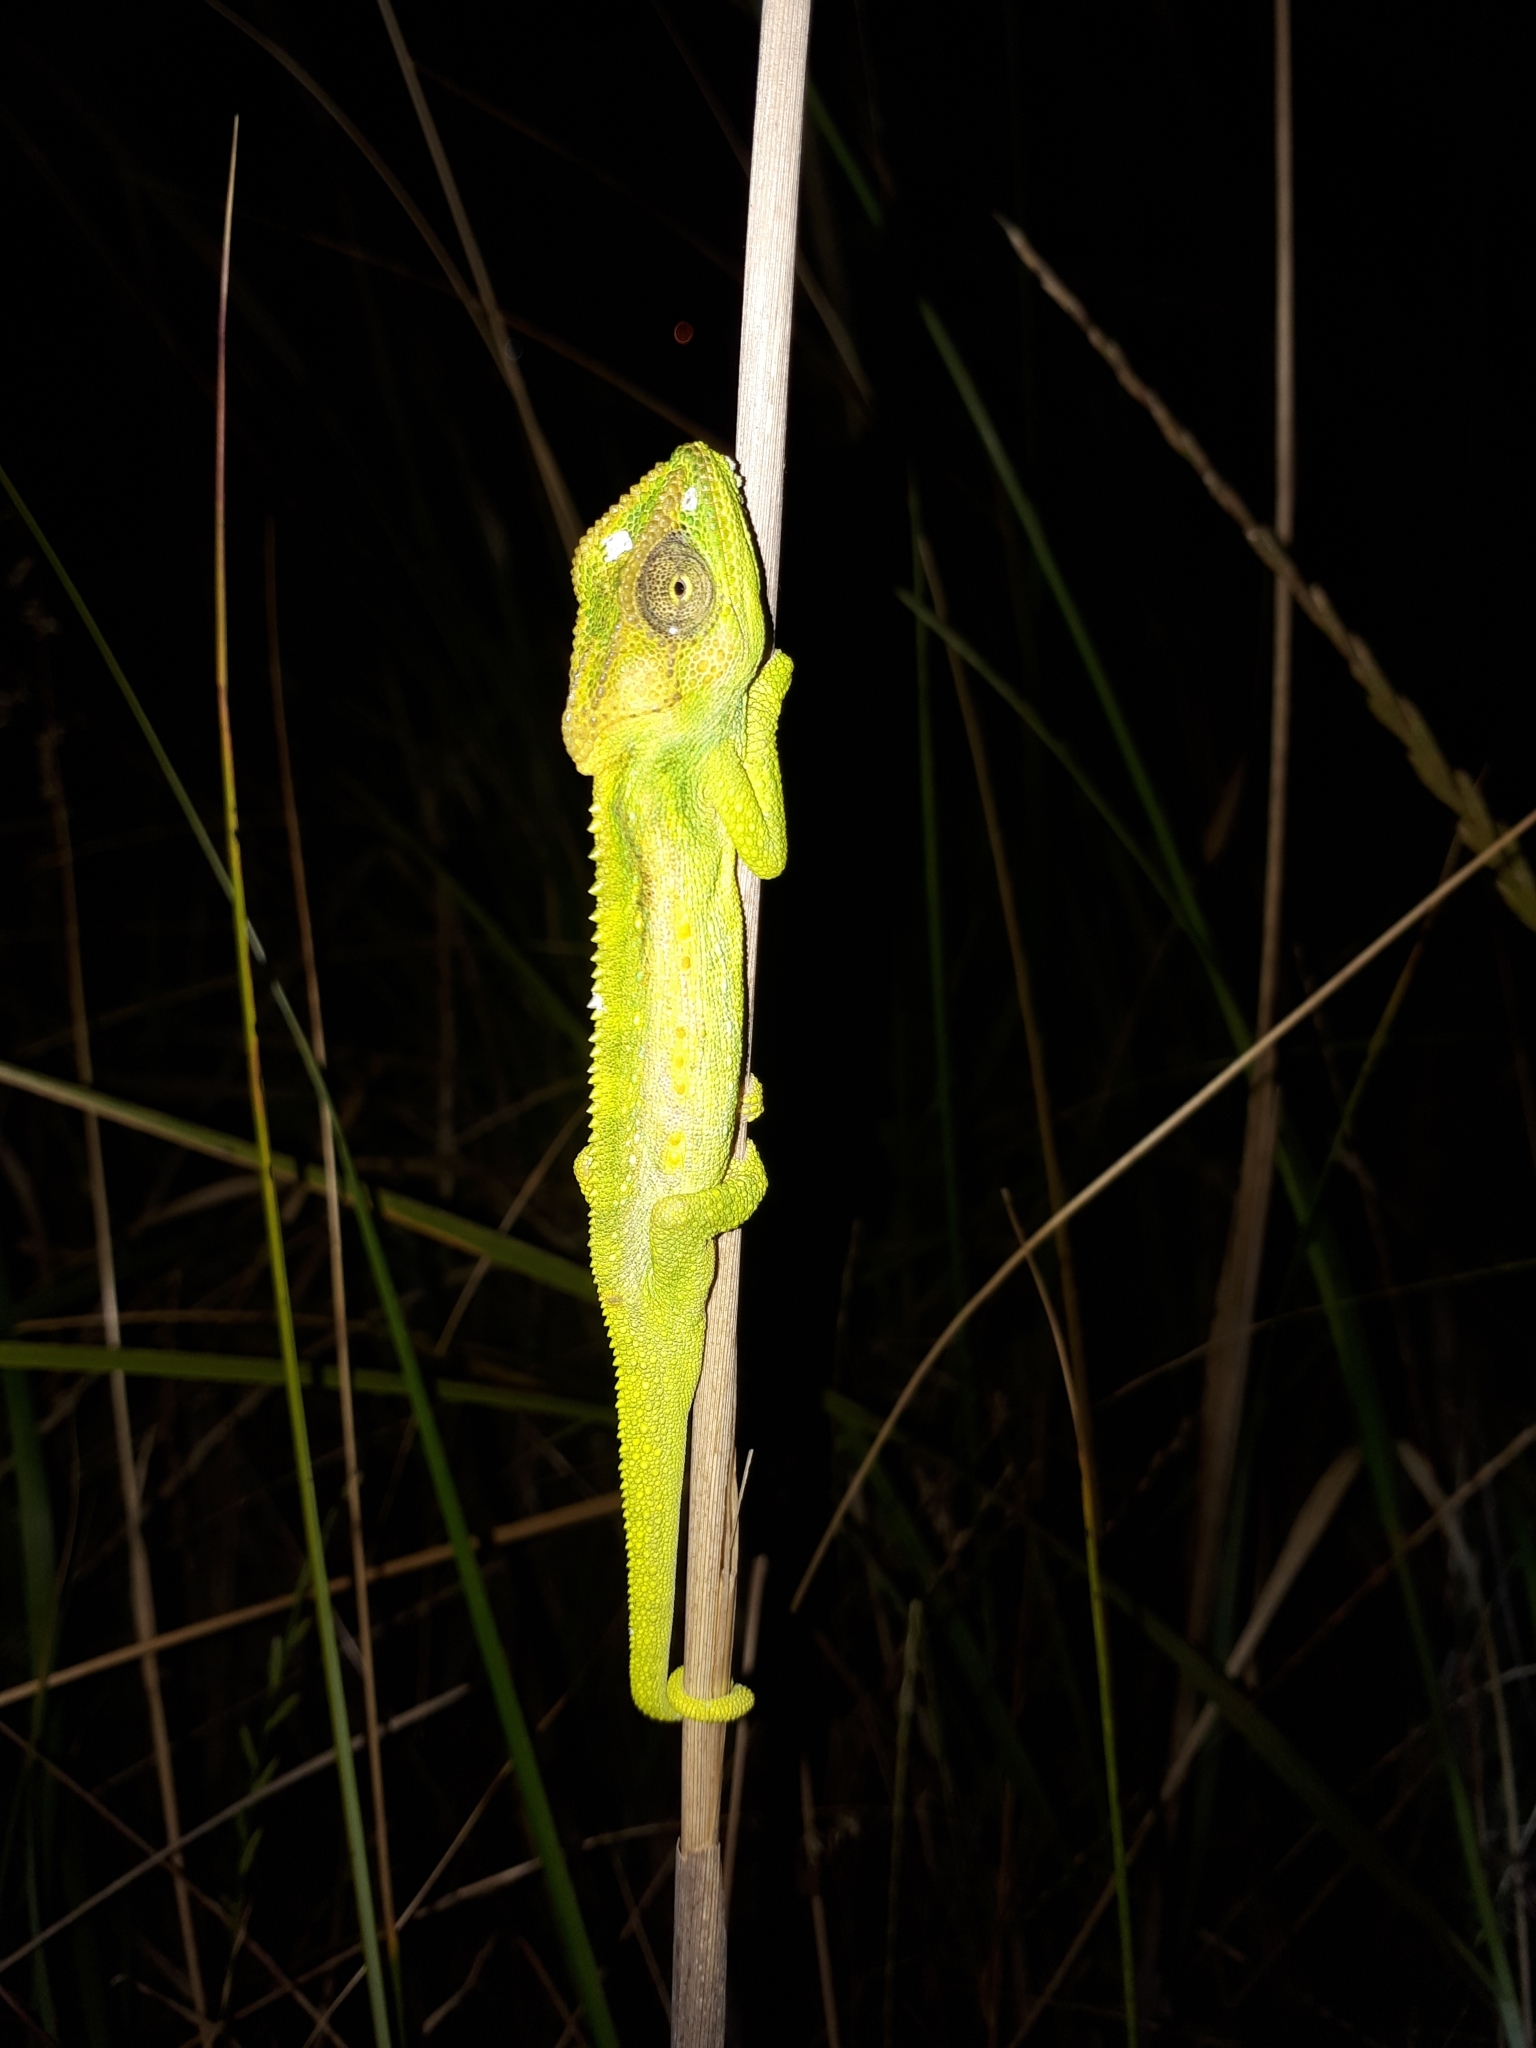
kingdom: Animalia
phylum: Chordata
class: Squamata
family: Chamaeleonidae
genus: Bradypodion
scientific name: Bradypodion pumilum
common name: Cape dwarf chameleon
